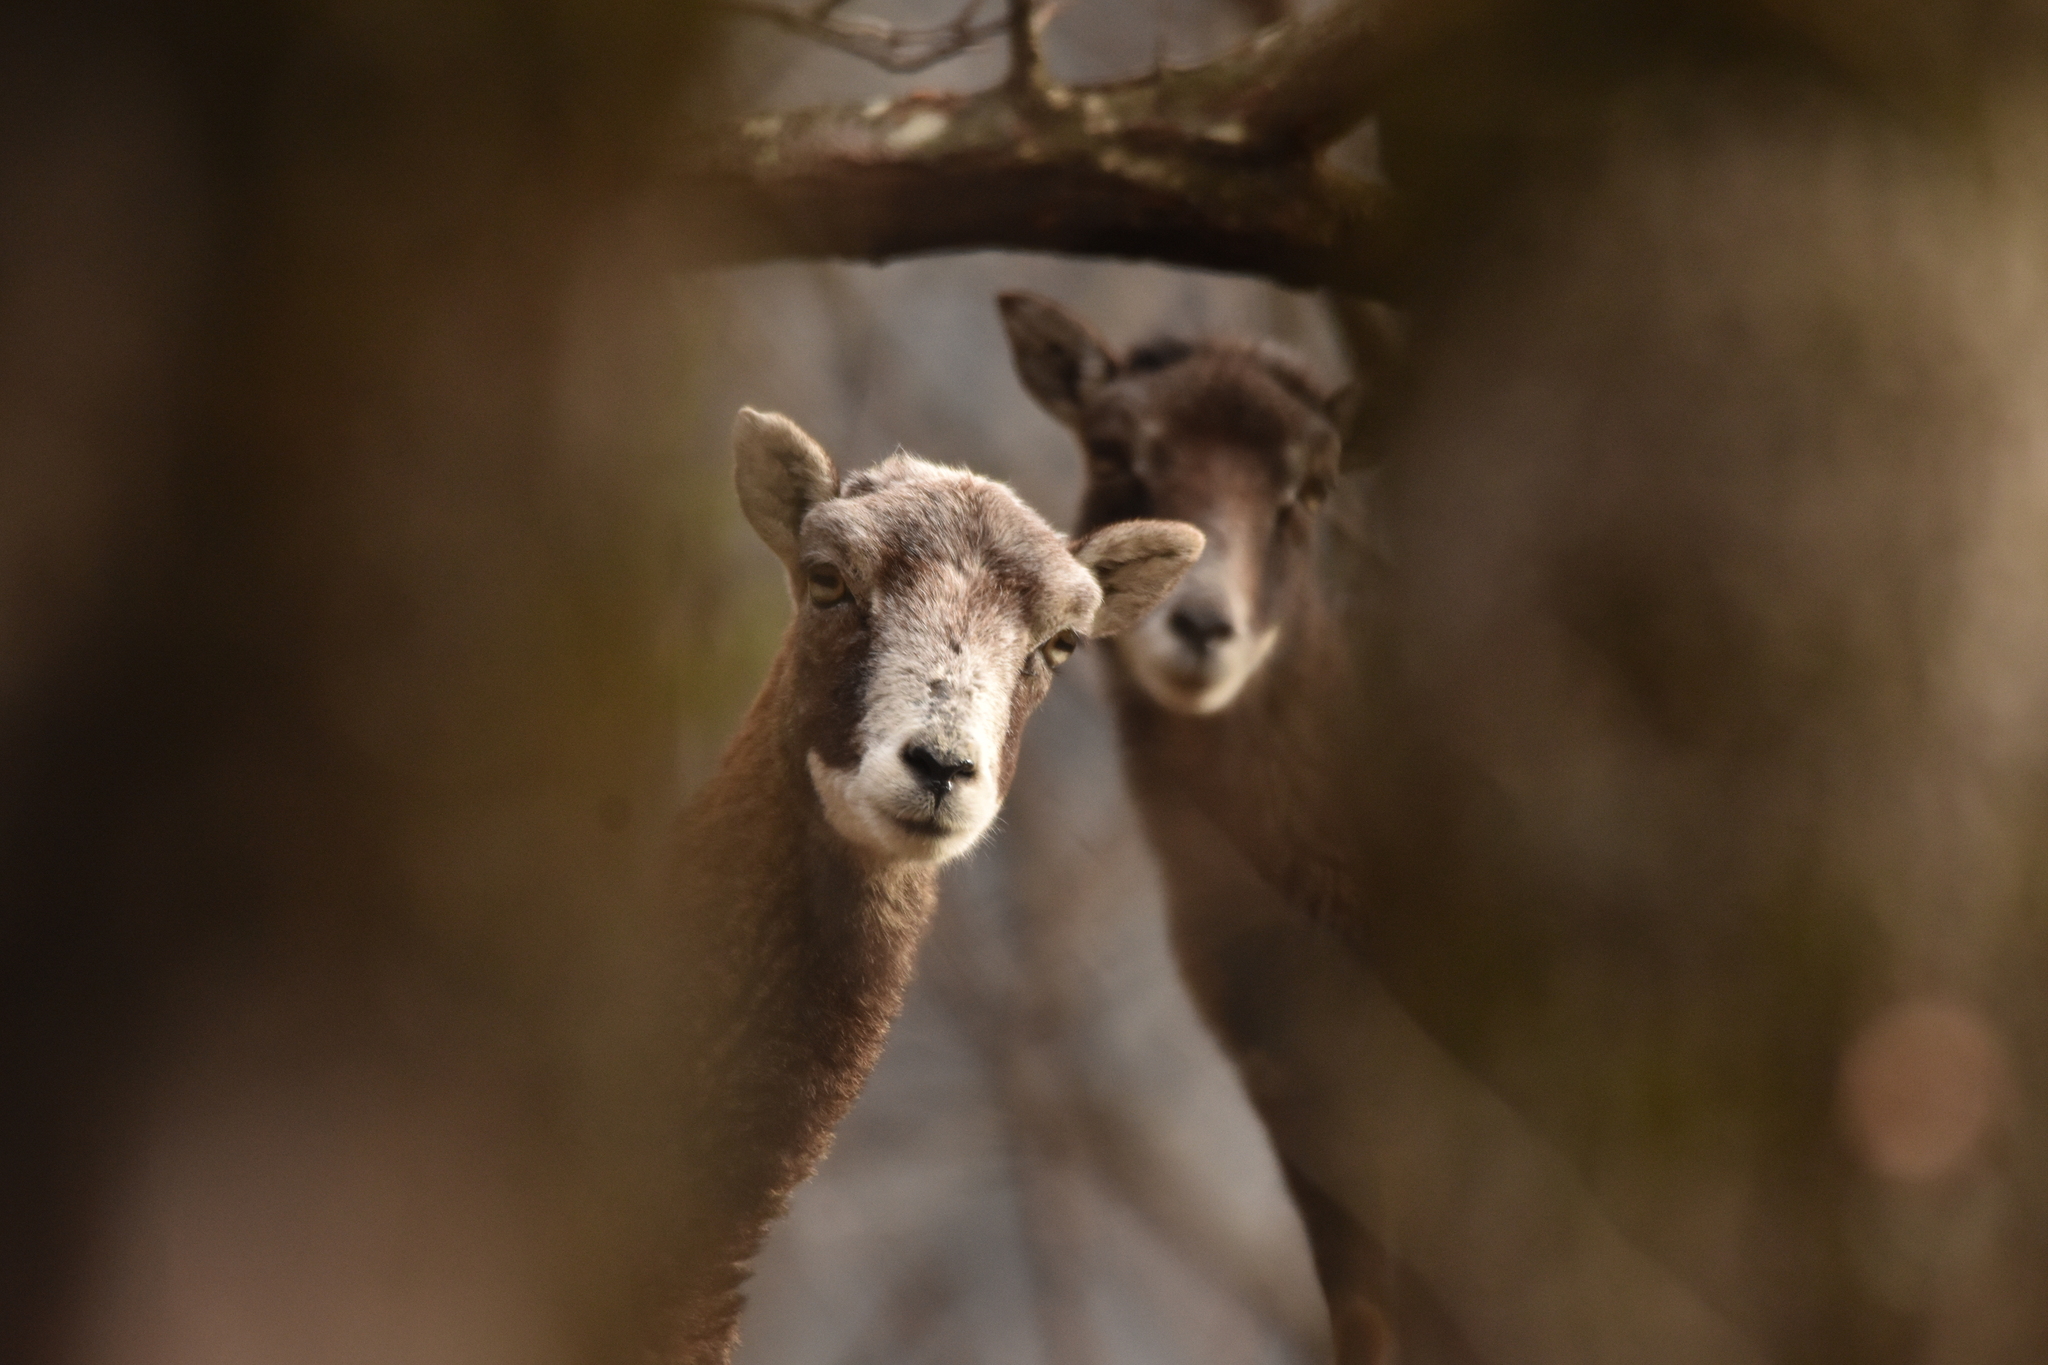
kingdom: Animalia
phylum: Chordata
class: Mammalia
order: Artiodactyla
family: Bovidae
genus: Ovis
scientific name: Ovis aries
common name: Domestic sheep
